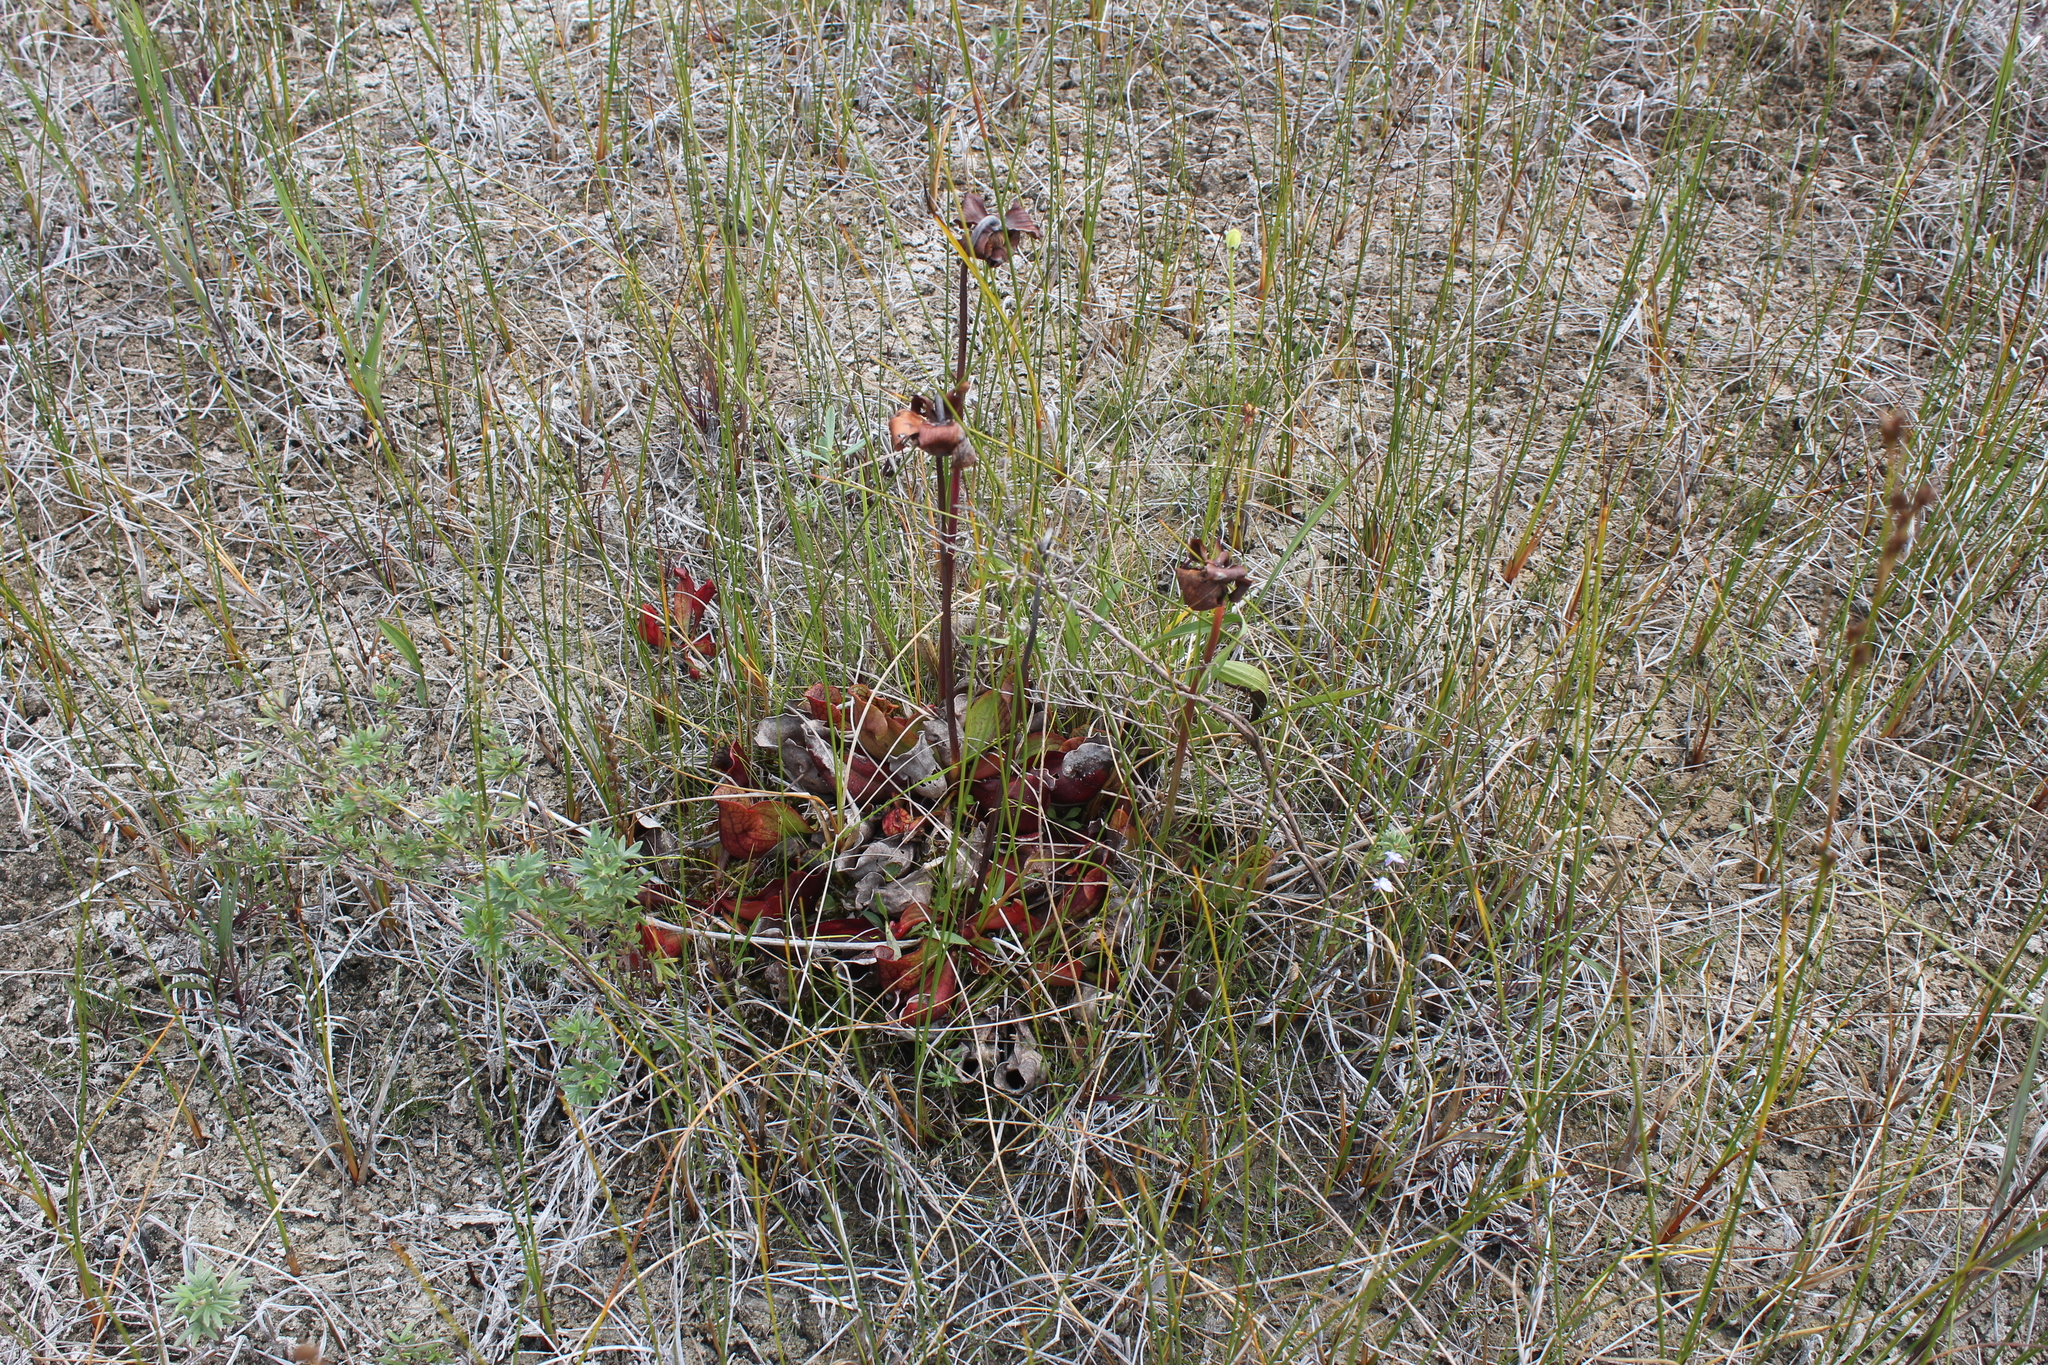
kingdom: Plantae
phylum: Tracheophyta
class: Magnoliopsida
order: Ericales
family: Sarraceniaceae
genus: Sarracenia
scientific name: Sarracenia purpurea
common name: Pitcherplant
